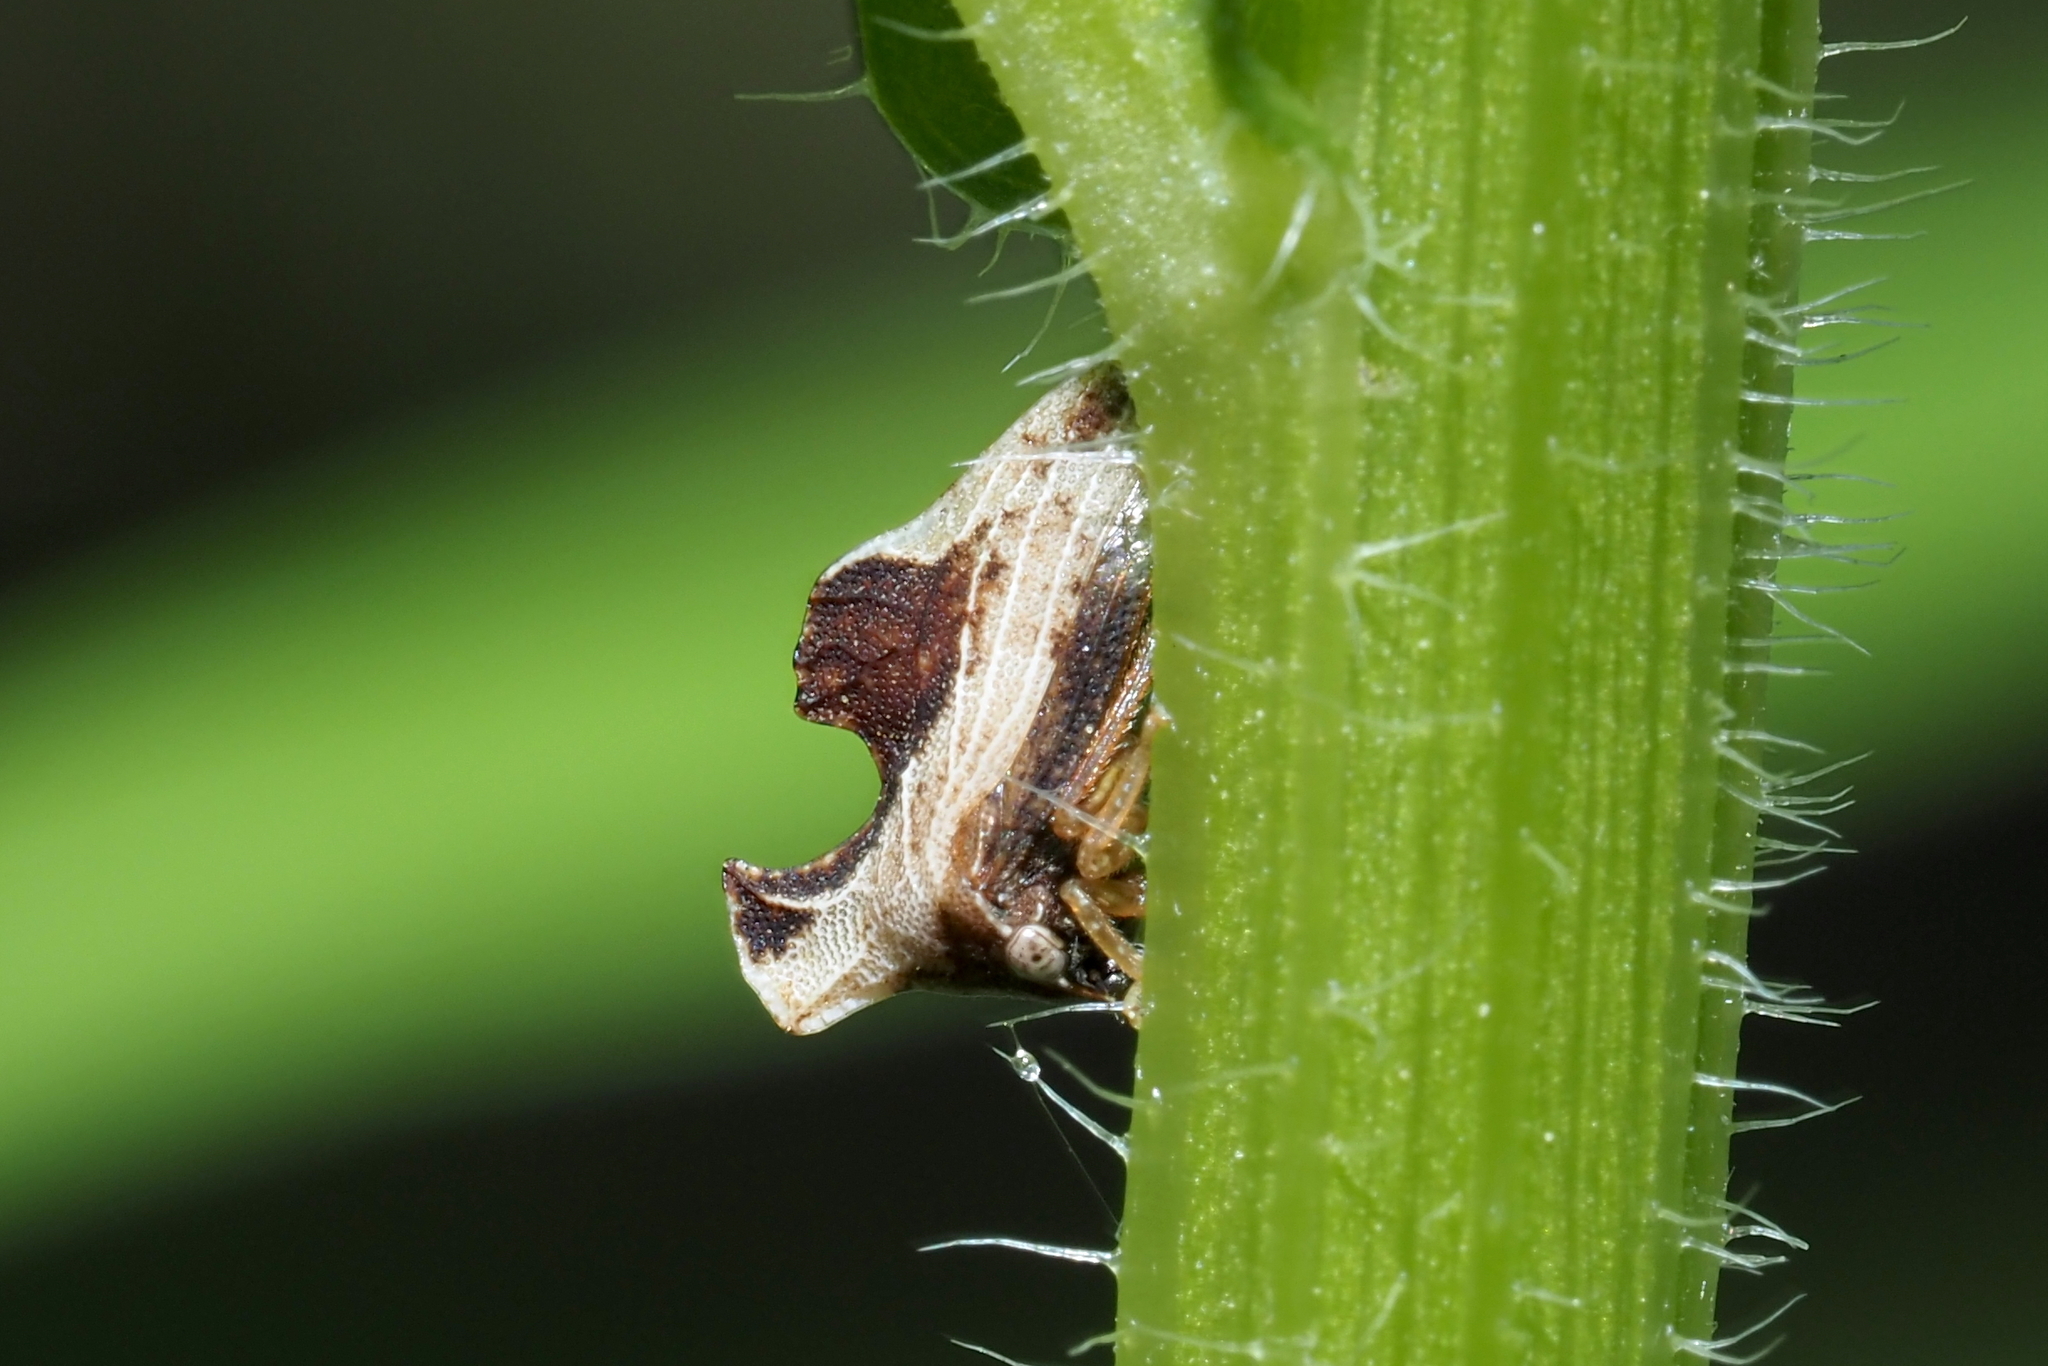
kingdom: Animalia
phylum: Arthropoda
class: Insecta
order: Hemiptera
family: Membracidae
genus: Entylia
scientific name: Entylia carinata
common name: Keeled treehopper
